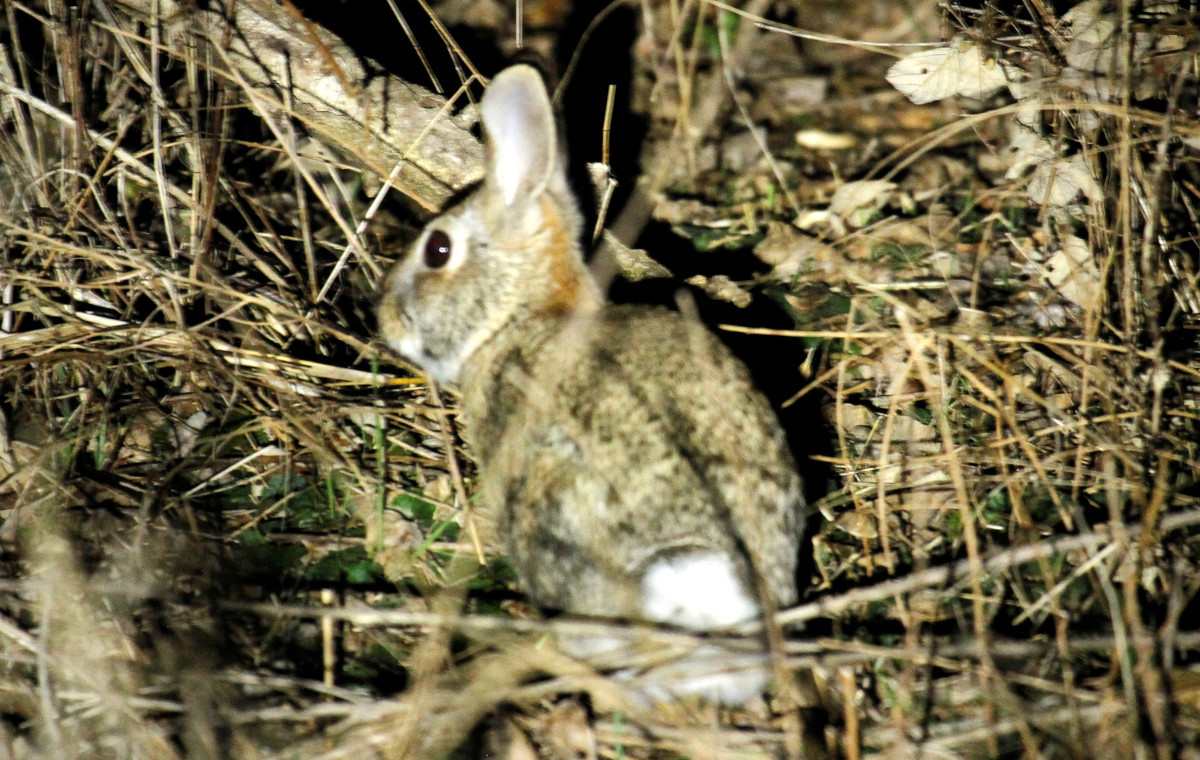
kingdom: Animalia
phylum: Chordata
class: Mammalia
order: Lagomorpha
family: Leporidae
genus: Sylvilagus
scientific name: Sylvilagus floridanus
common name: Eastern cottontail
